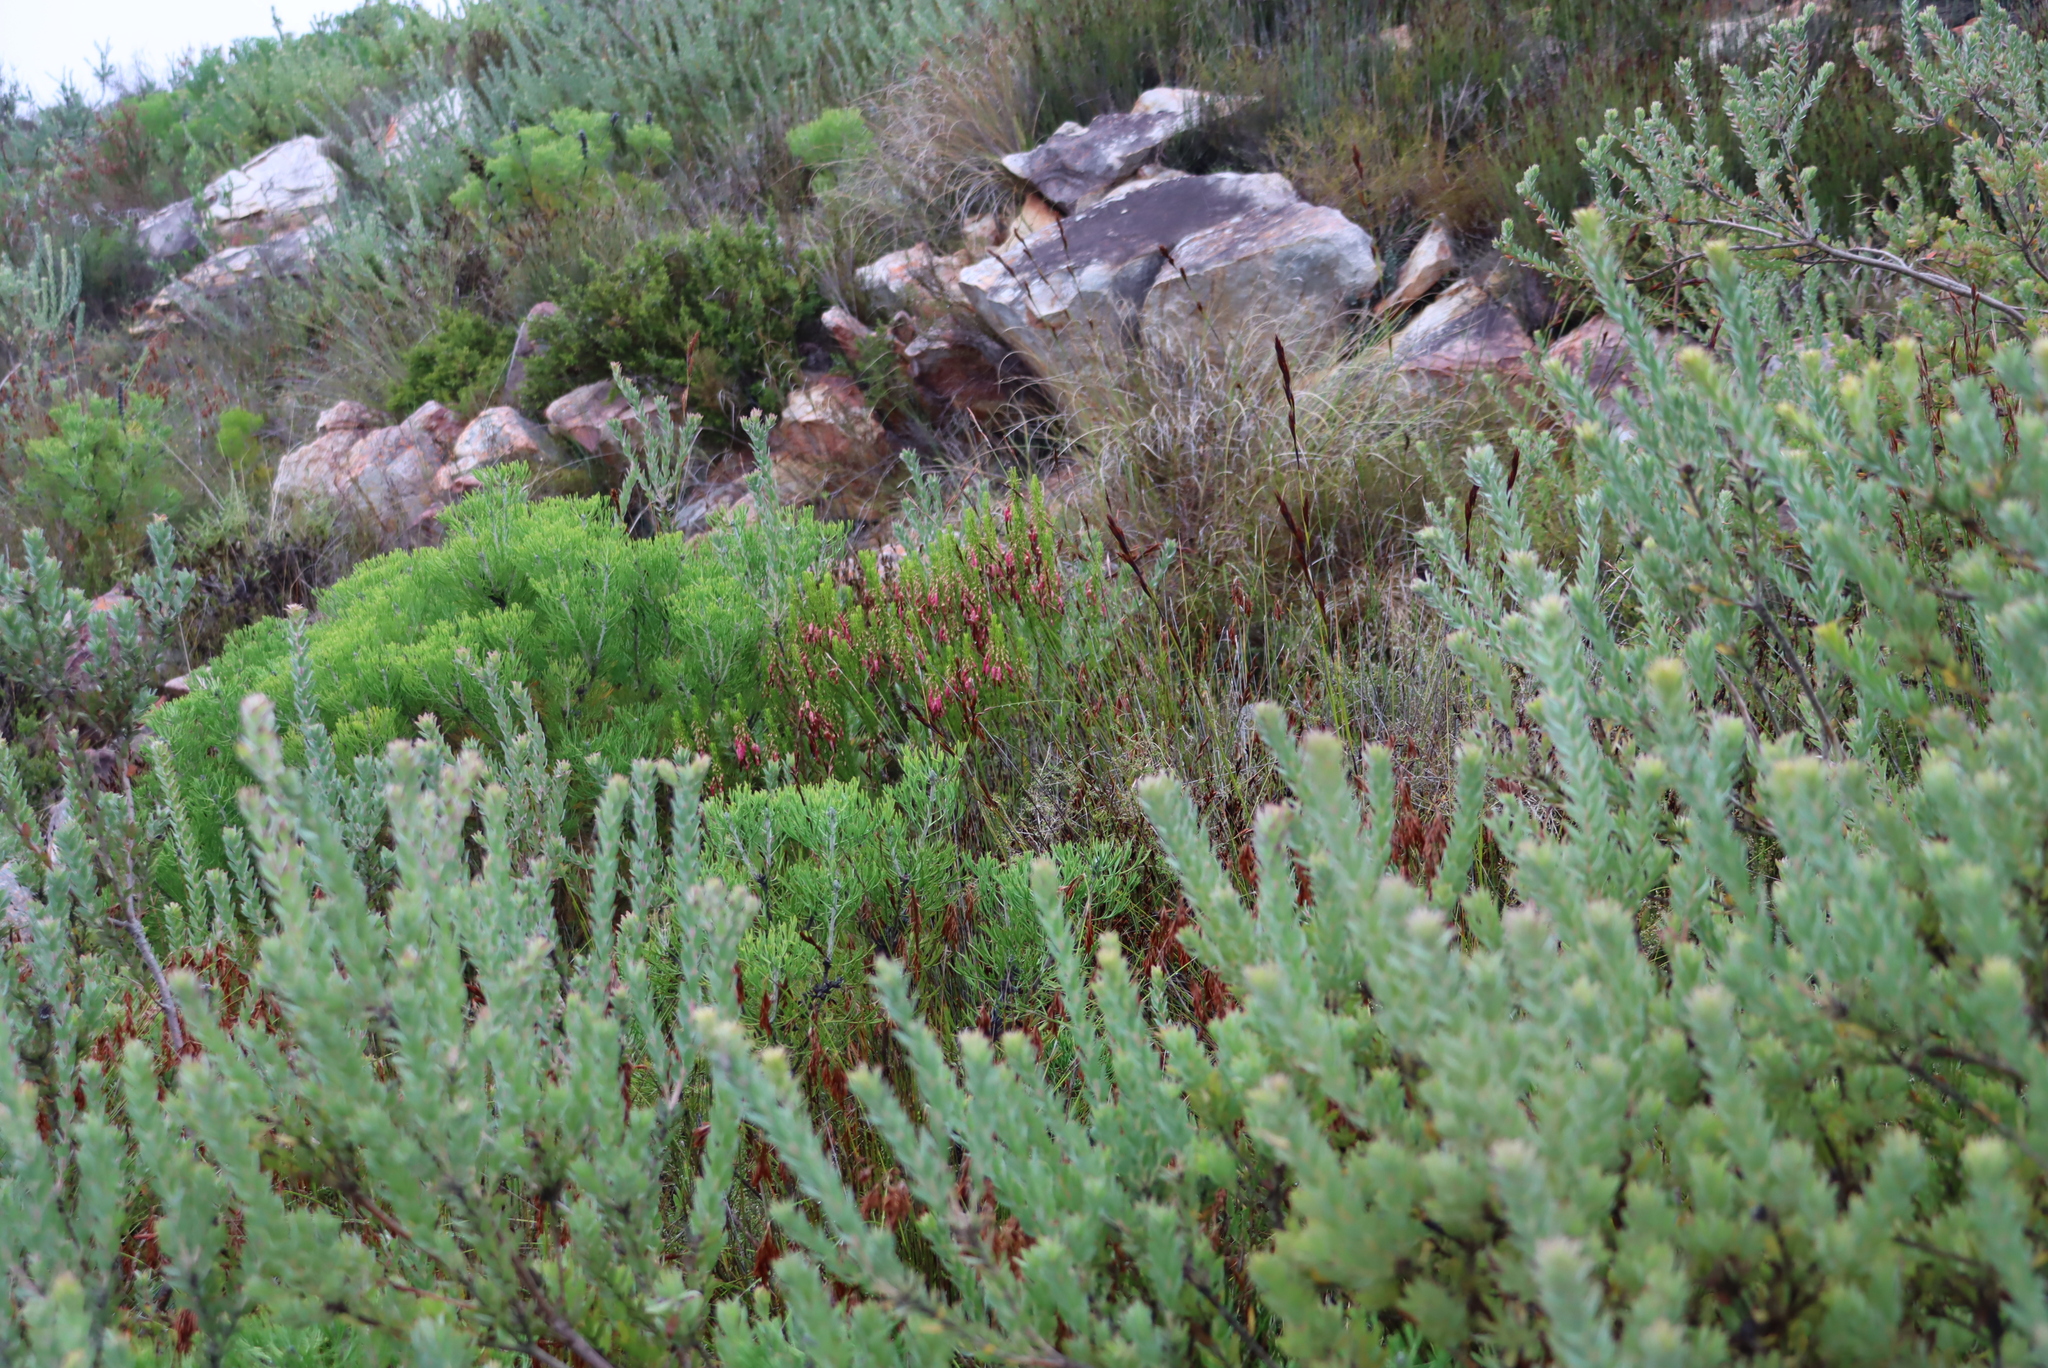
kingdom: Plantae
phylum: Tracheophyta
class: Magnoliopsida
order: Ericales
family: Ericaceae
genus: Erica
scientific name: Erica plukenetii
